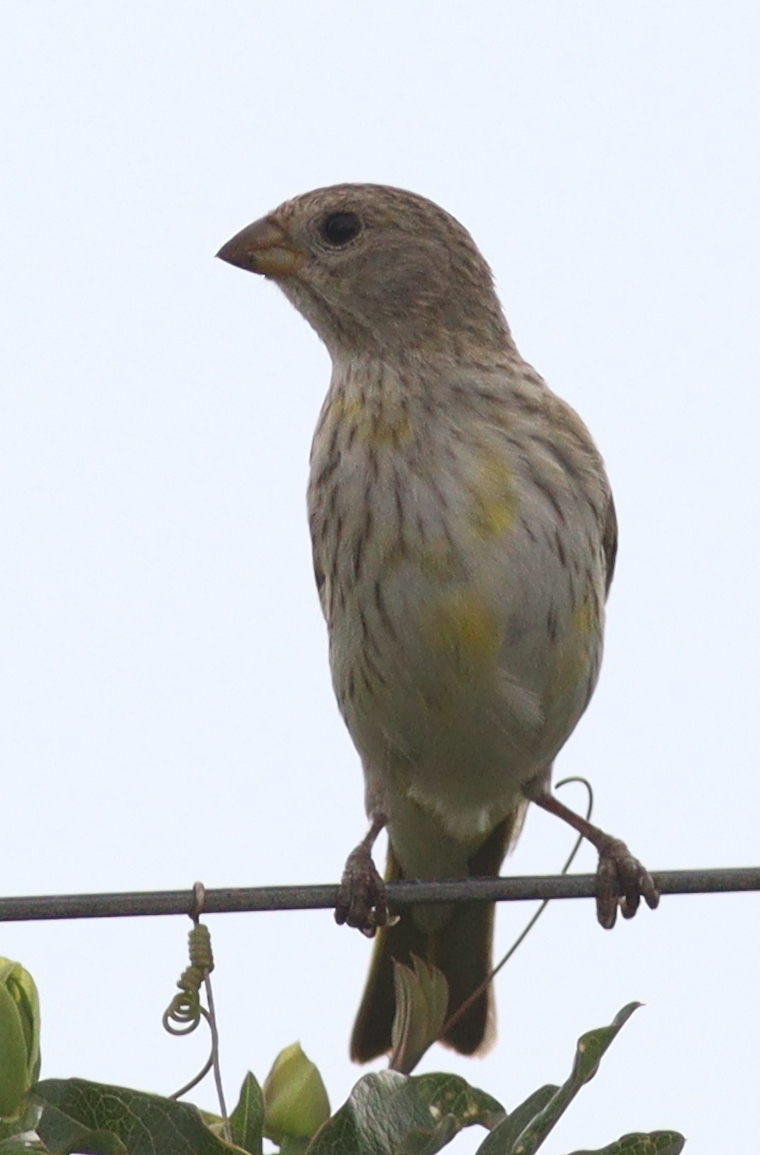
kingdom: Animalia
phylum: Chordata
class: Aves
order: Passeriformes
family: Thraupidae
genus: Sicalis
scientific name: Sicalis flaveola
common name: Saffron finch
